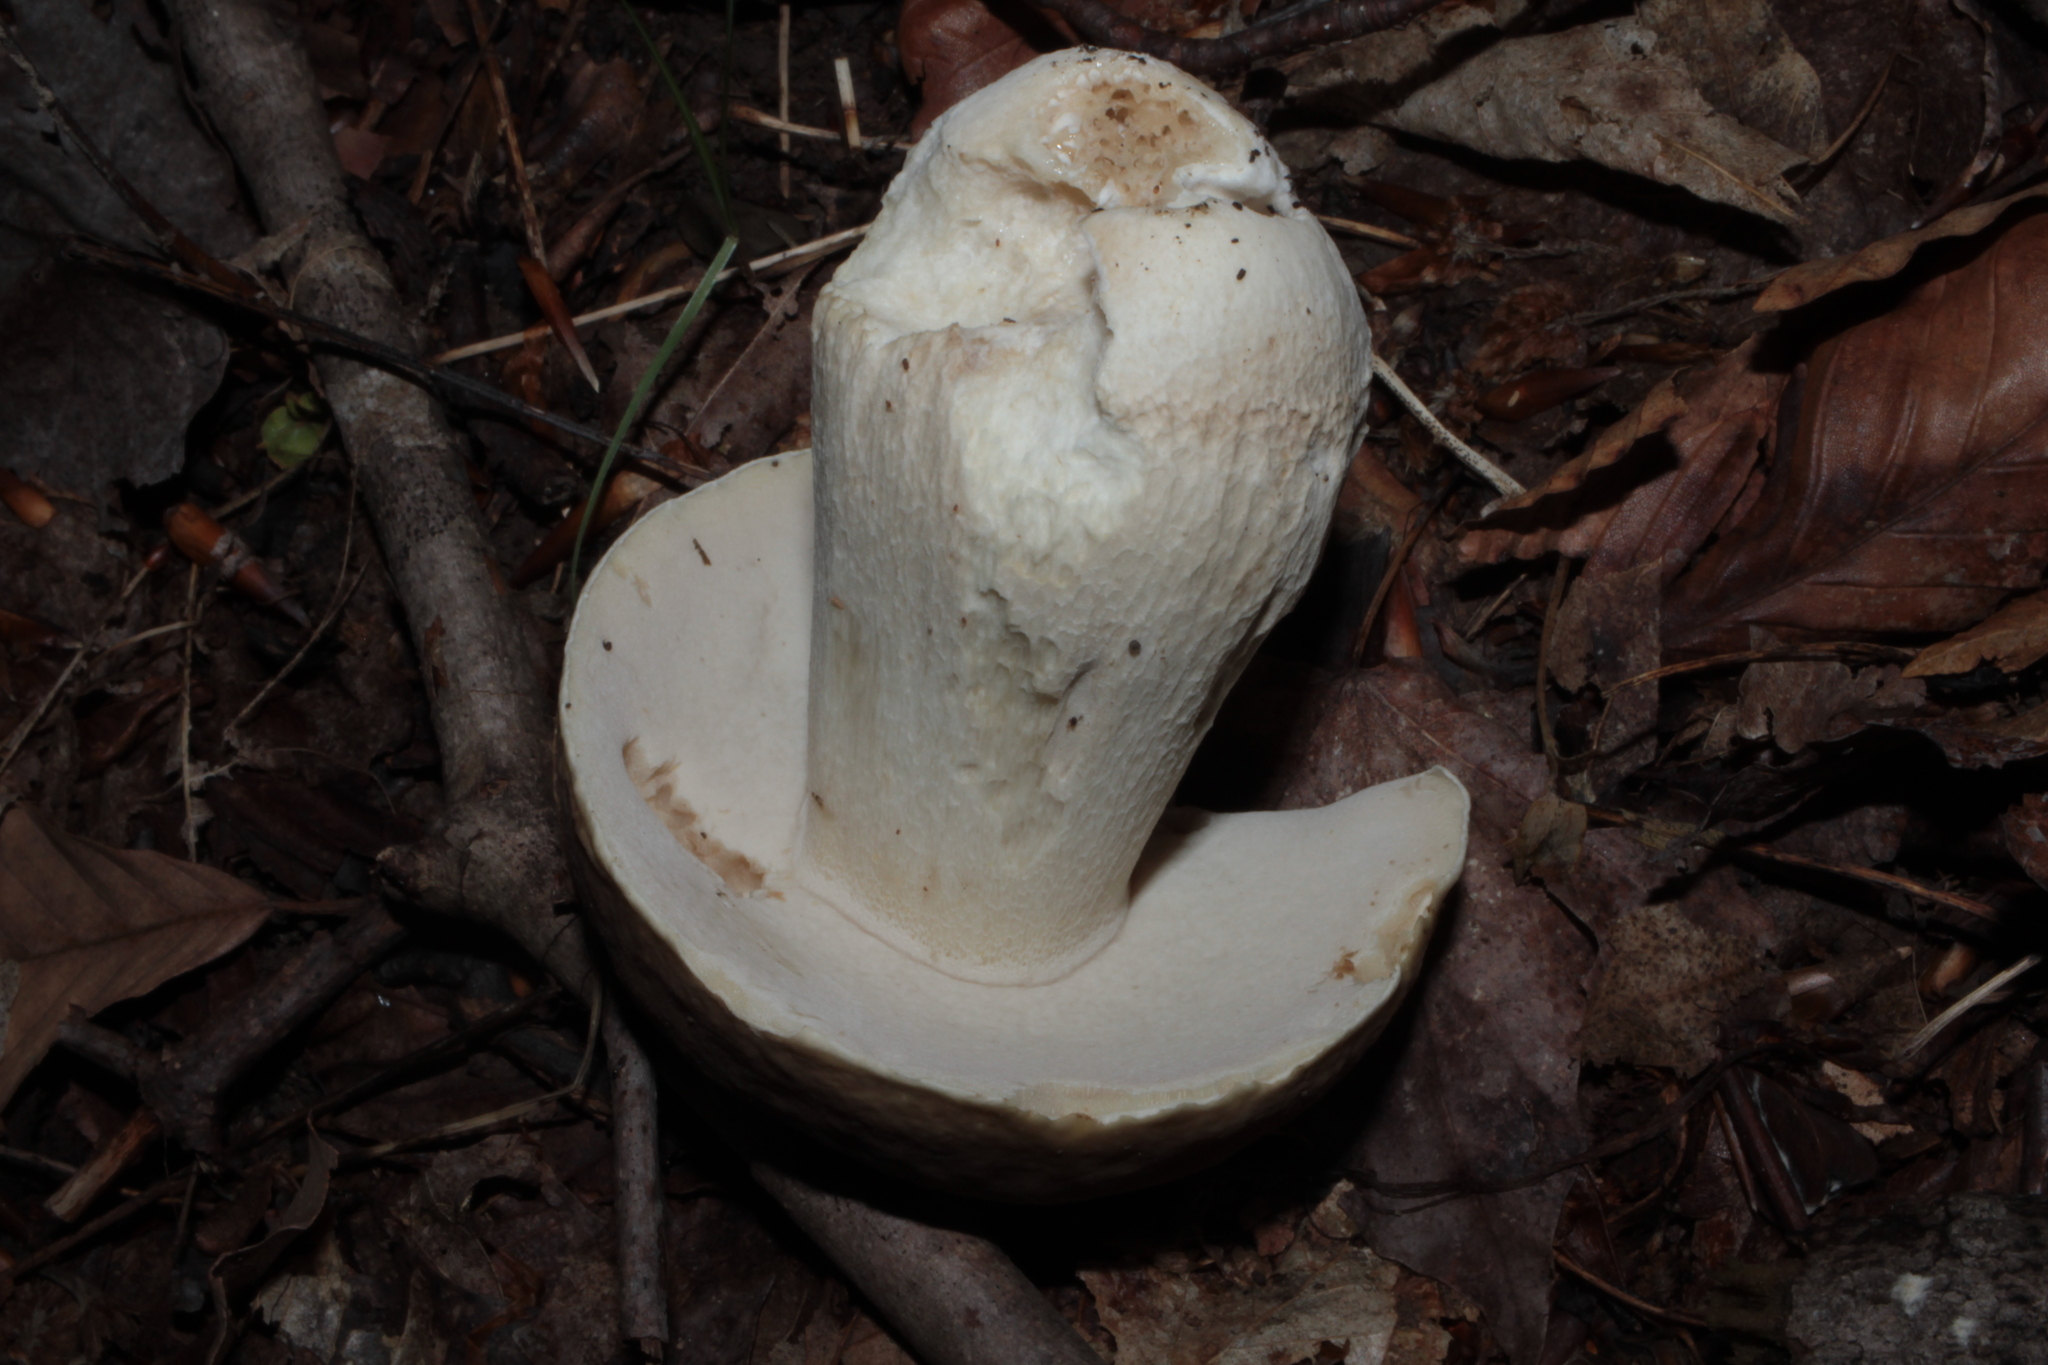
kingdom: Fungi
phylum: Basidiomycota
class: Agaricomycetes
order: Boletales
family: Boletaceae
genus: Boletus
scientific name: Boletus nobilis
